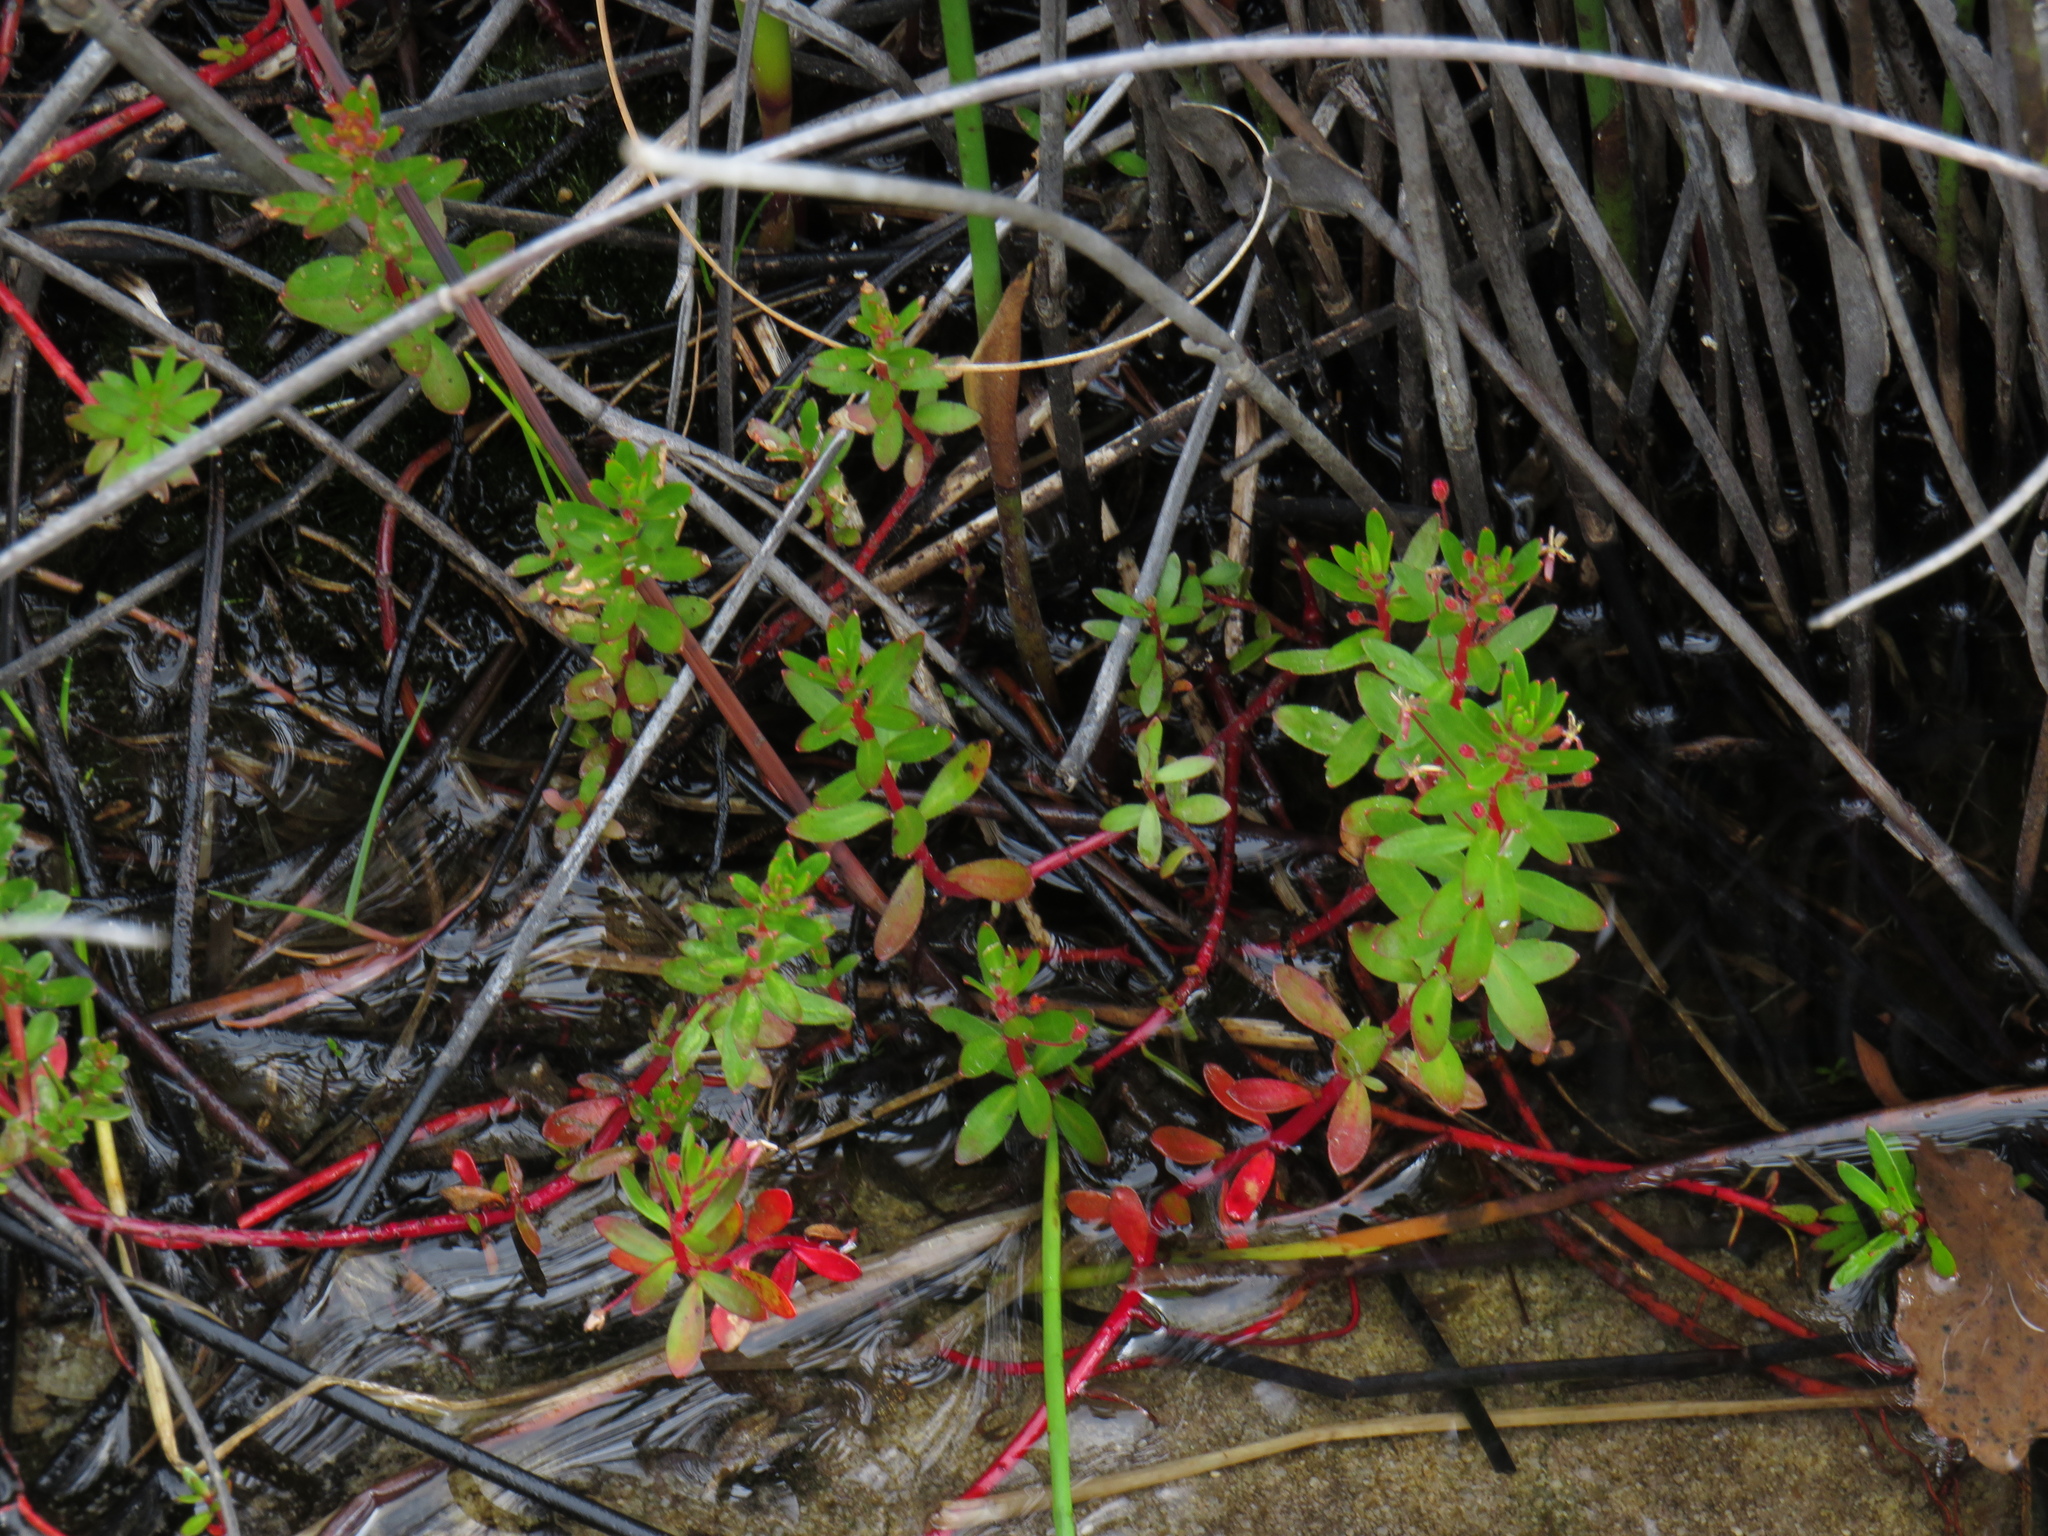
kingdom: Plantae
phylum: Tracheophyta
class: Magnoliopsida
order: Saxifragales
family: Haloragaceae
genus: Laurembergia
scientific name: Laurembergia repens
